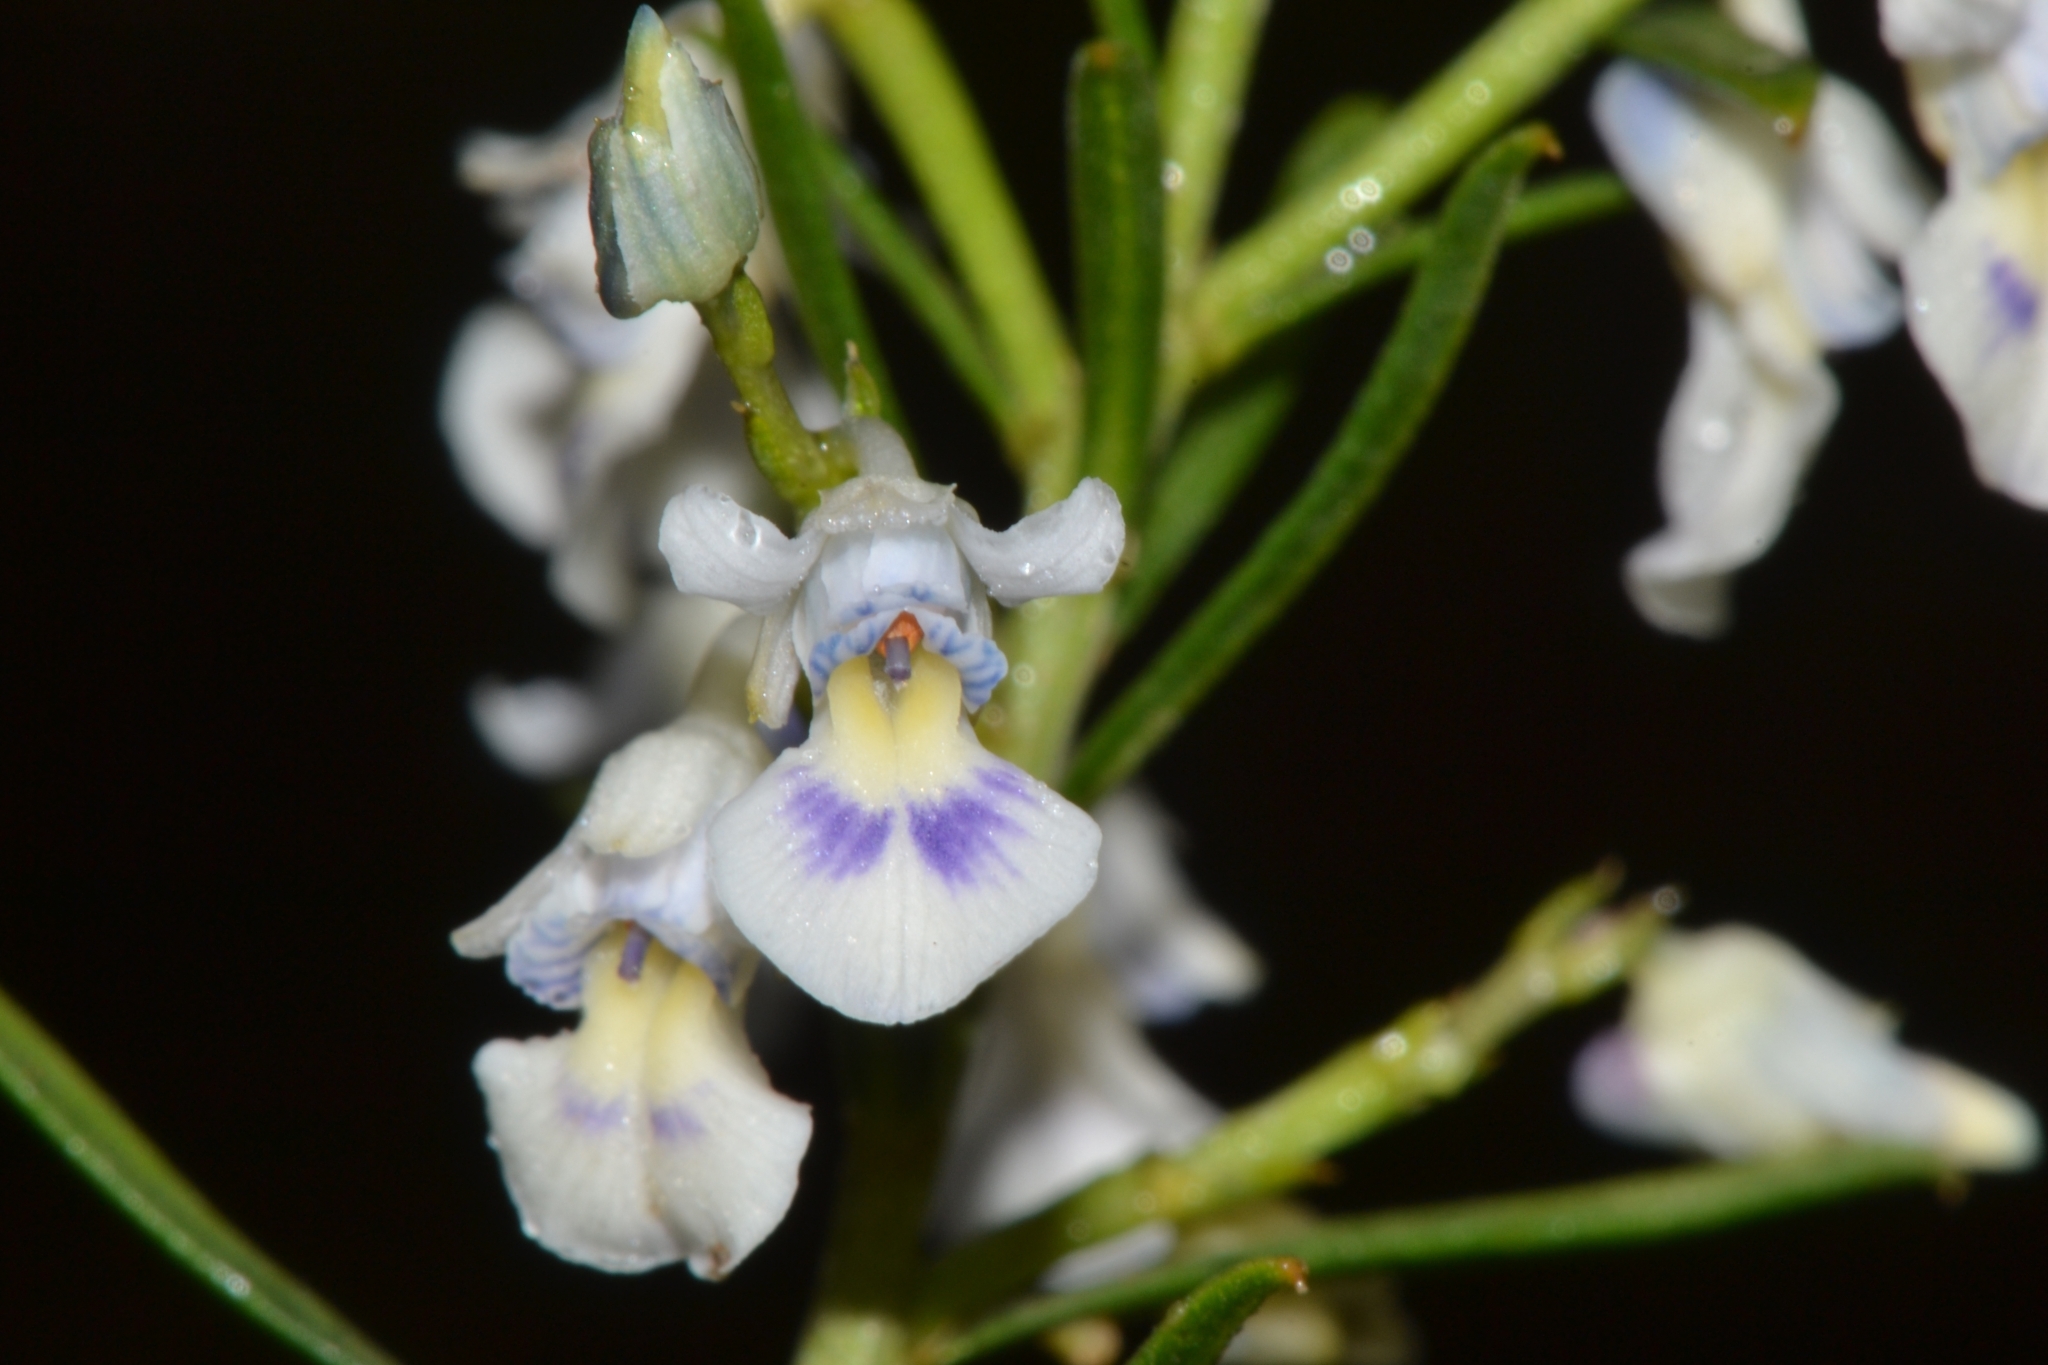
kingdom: Plantae
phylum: Tracheophyta
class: Magnoliopsida
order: Malpighiales
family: Violaceae
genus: Pigea
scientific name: Pigea floribunda
